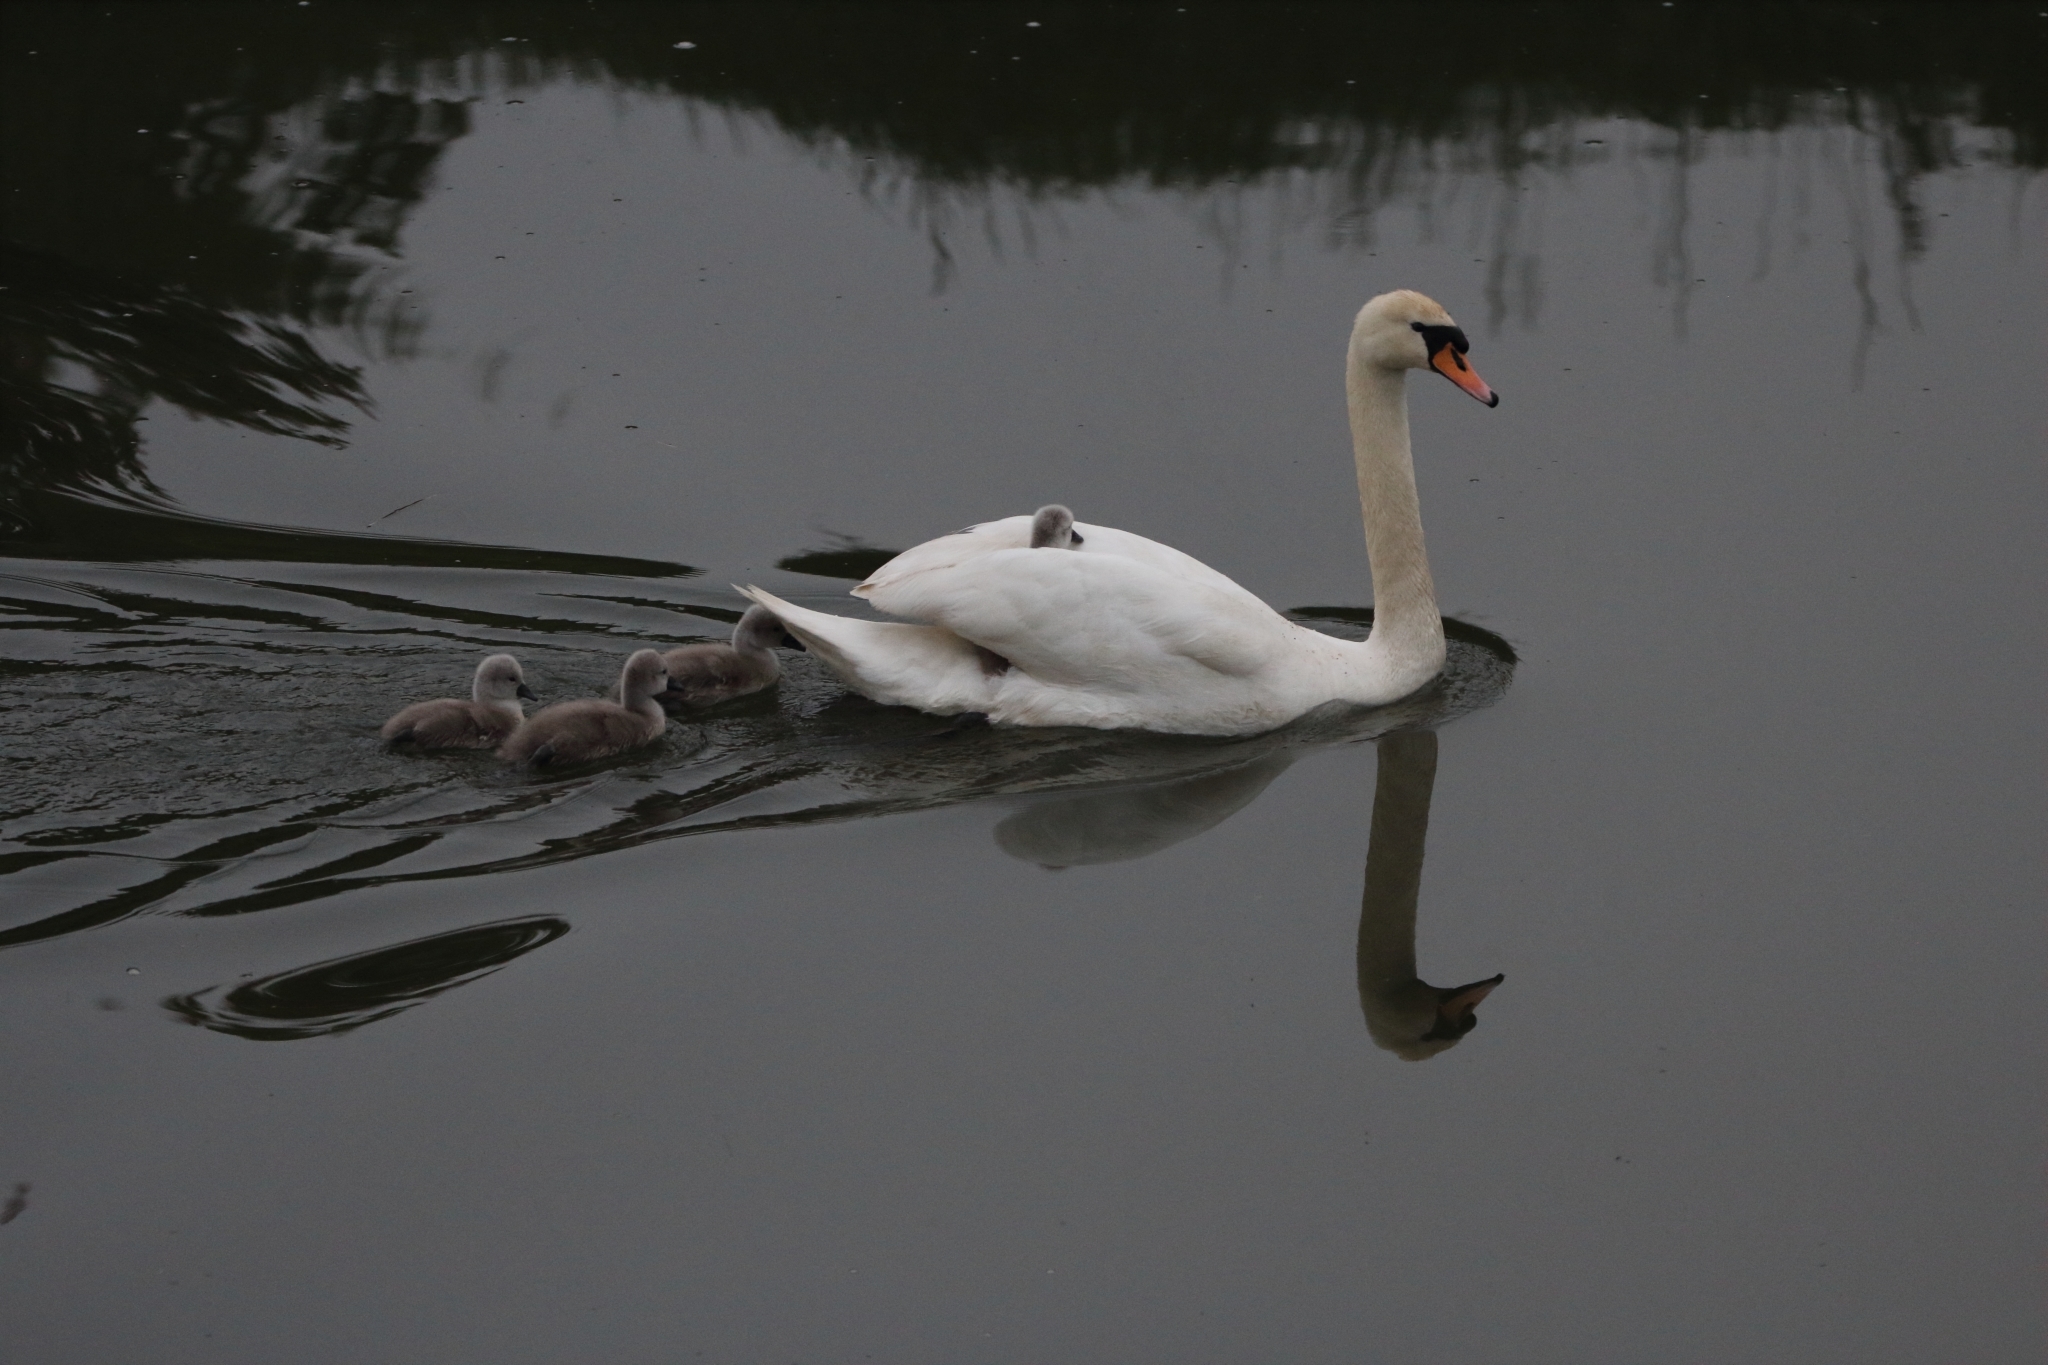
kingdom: Animalia
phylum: Chordata
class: Aves
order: Anseriformes
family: Anatidae
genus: Cygnus
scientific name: Cygnus olor
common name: Mute swan
